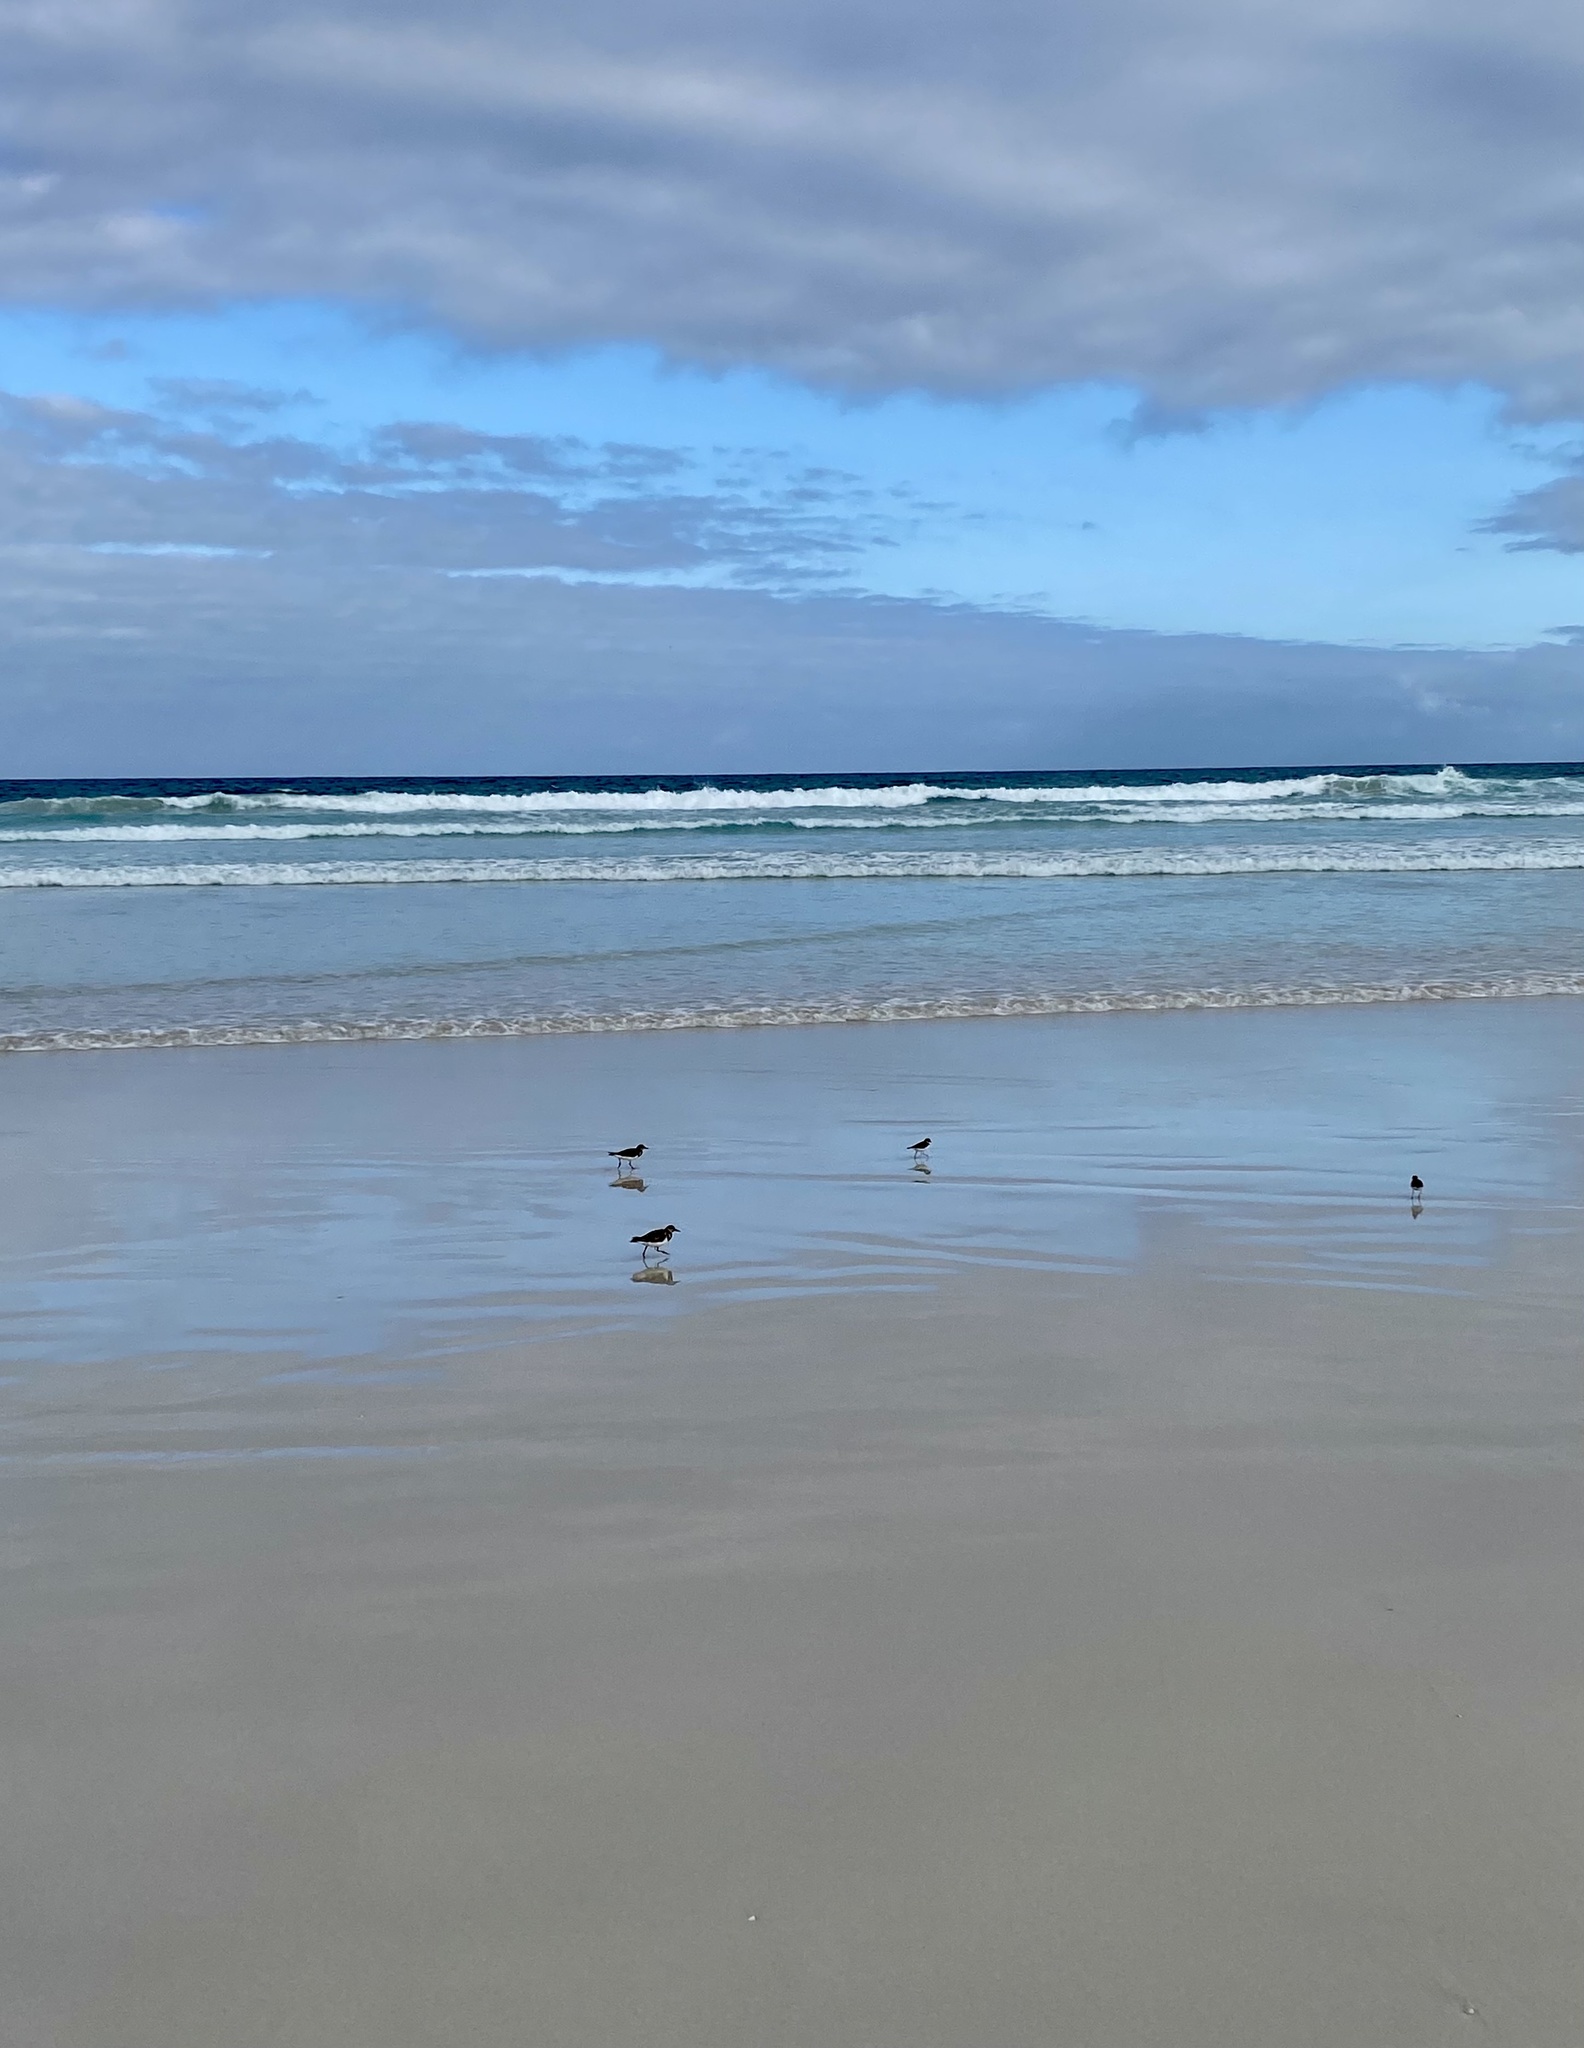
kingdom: Animalia
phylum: Chordata
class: Aves
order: Charadriiformes
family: Scolopacidae
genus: Arenaria
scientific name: Arenaria interpres
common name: Ruddy turnstone
